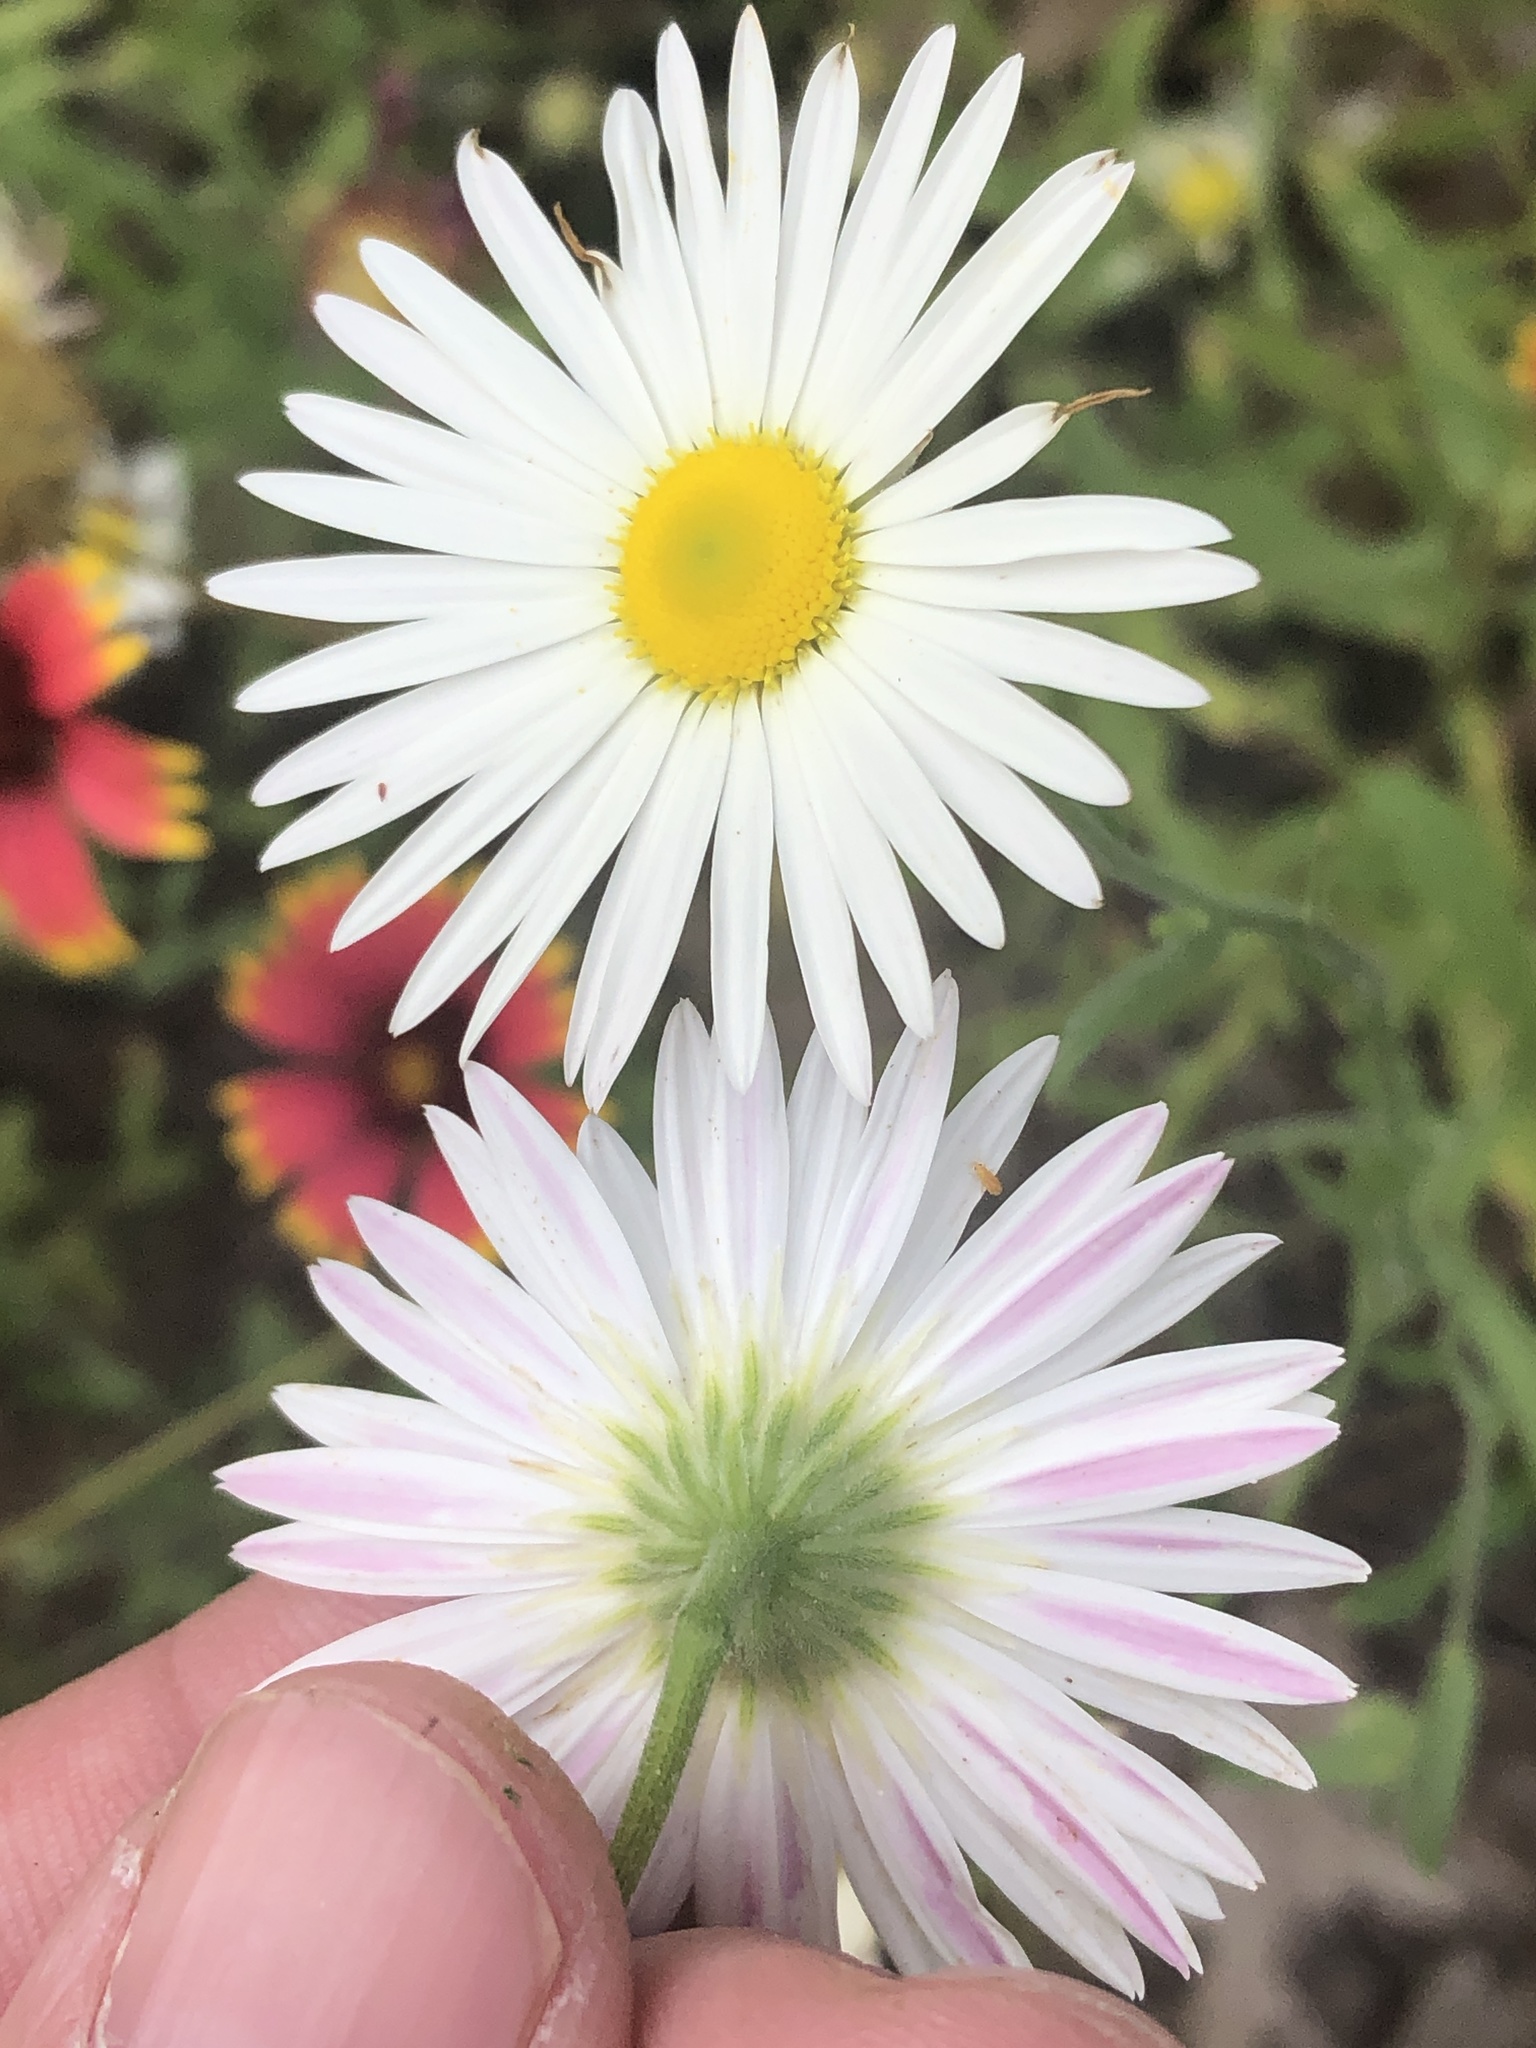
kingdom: Plantae
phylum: Tracheophyta
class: Magnoliopsida
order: Asterales
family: Asteraceae
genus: Aphanostephus
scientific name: Aphanostephus ramosissimus
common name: Plains lazy daisy
